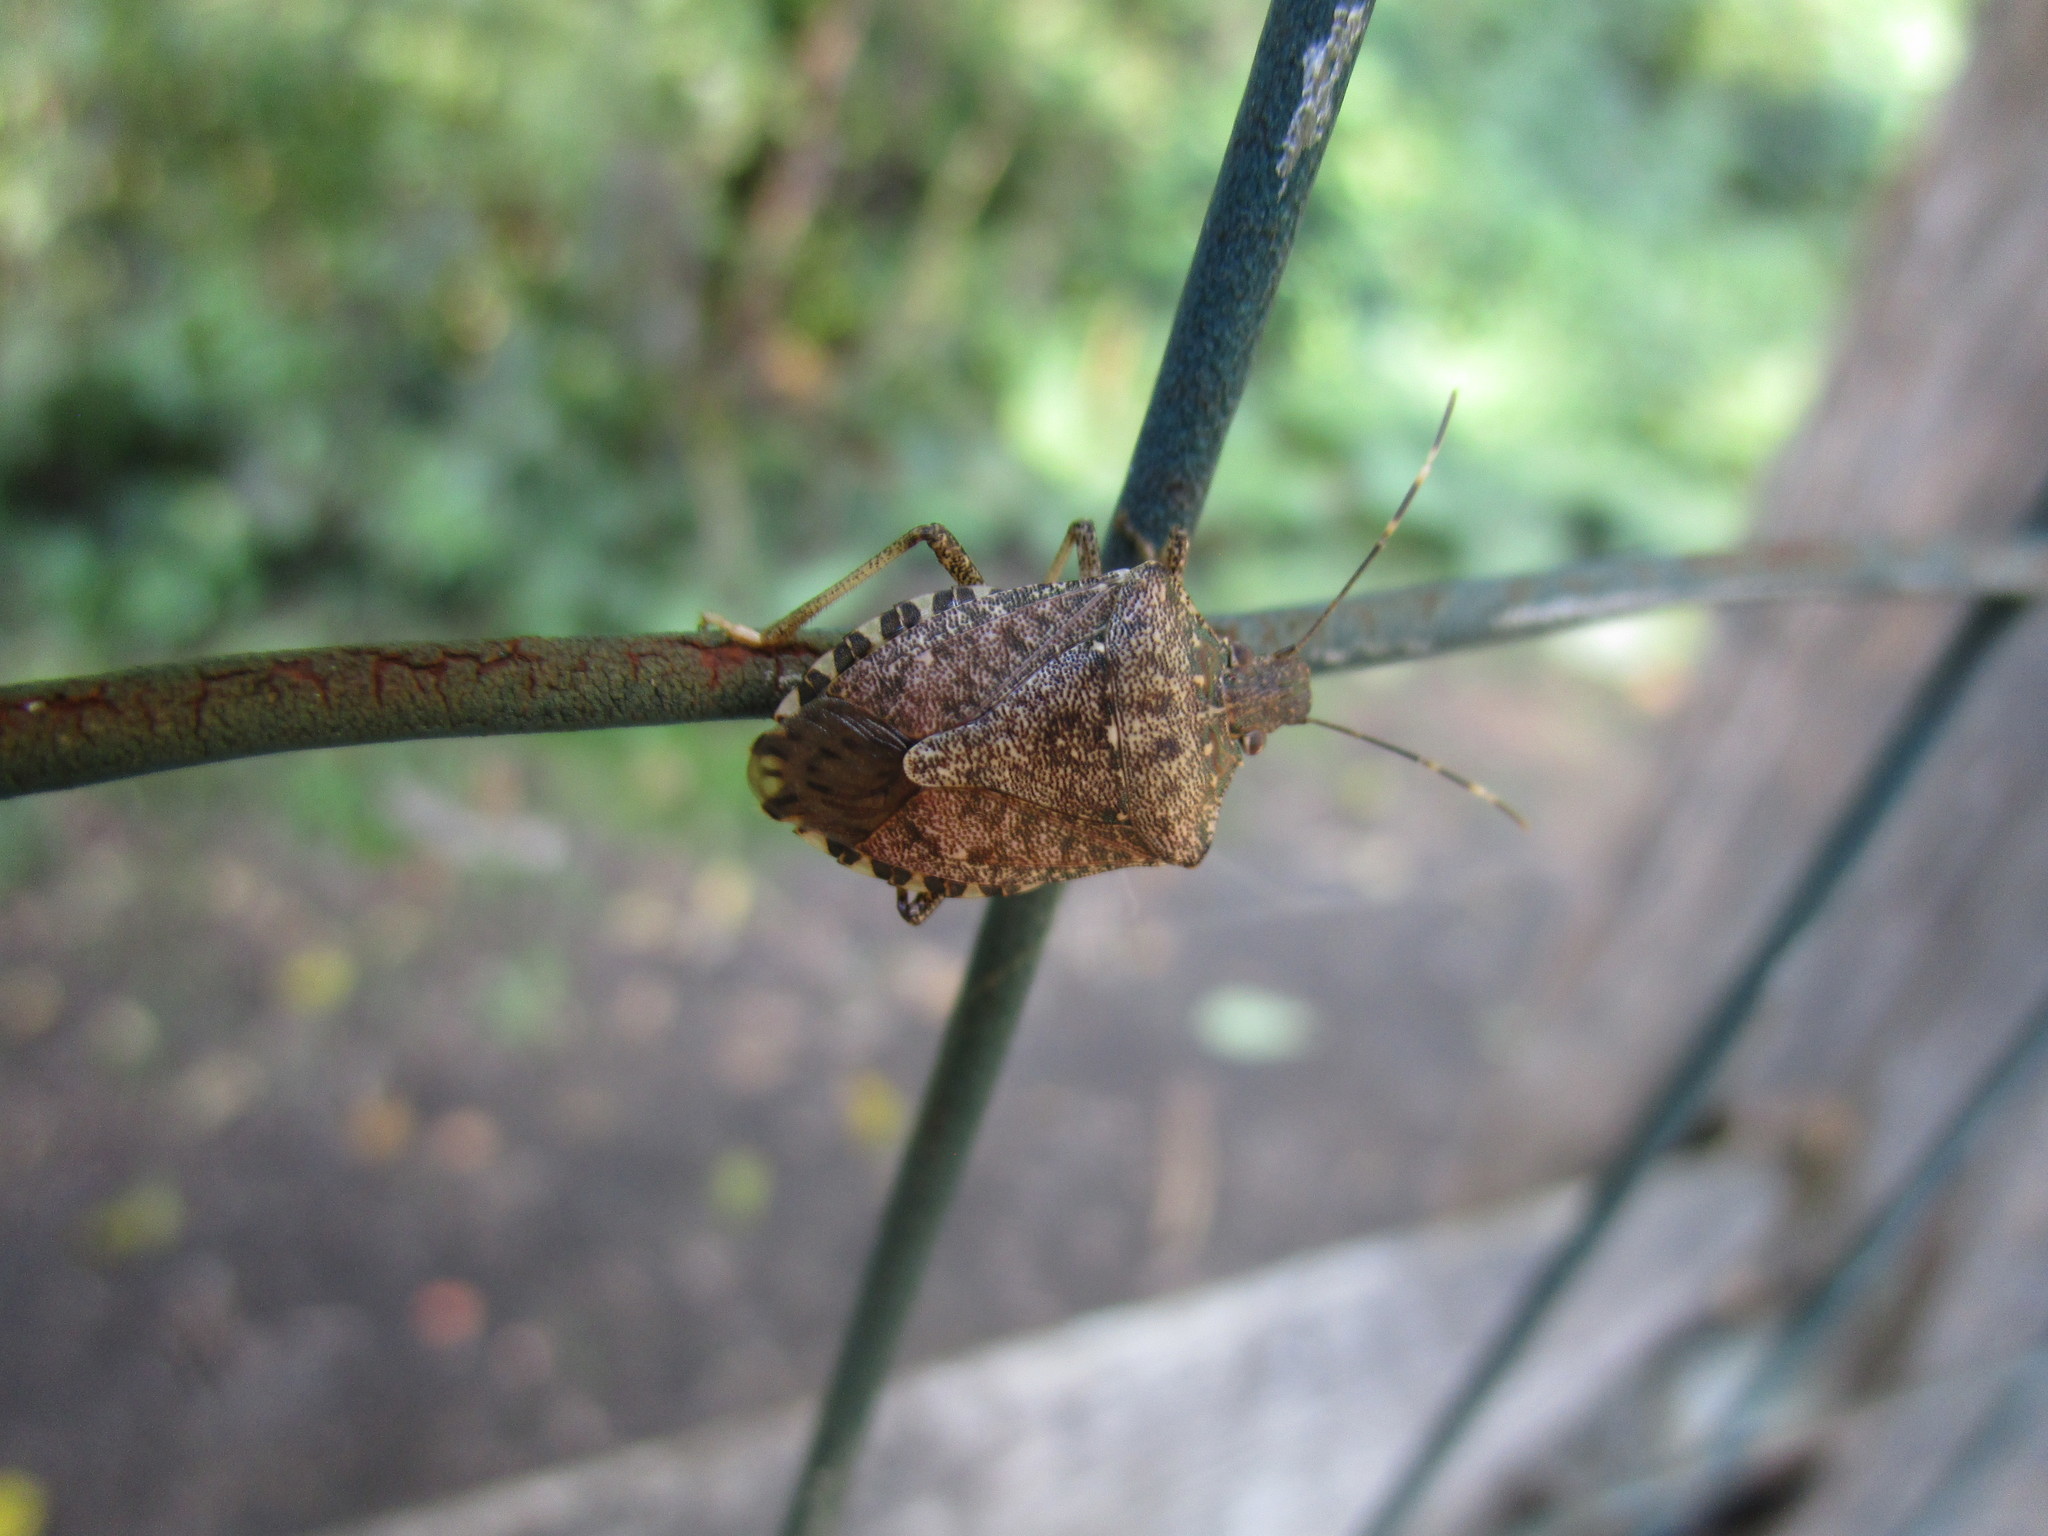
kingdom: Animalia
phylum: Arthropoda
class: Insecta
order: Hemiptera
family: Pentatomidae
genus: Halyomorpha
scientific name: Halyomorpha halys
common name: Brown marmorated stink bug
